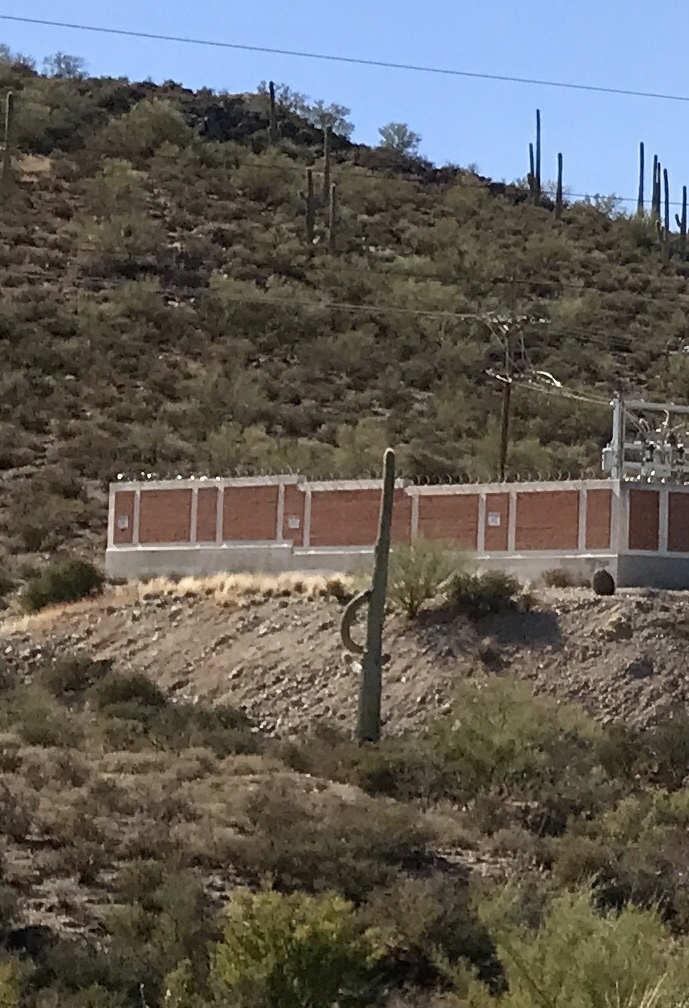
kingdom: Plantae
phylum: Tracheophyta
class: Magnoliopsida
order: Caryophyllales
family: Cactaceae
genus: Carnegiea
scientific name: Carnegiea gigantea
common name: Saguaro
